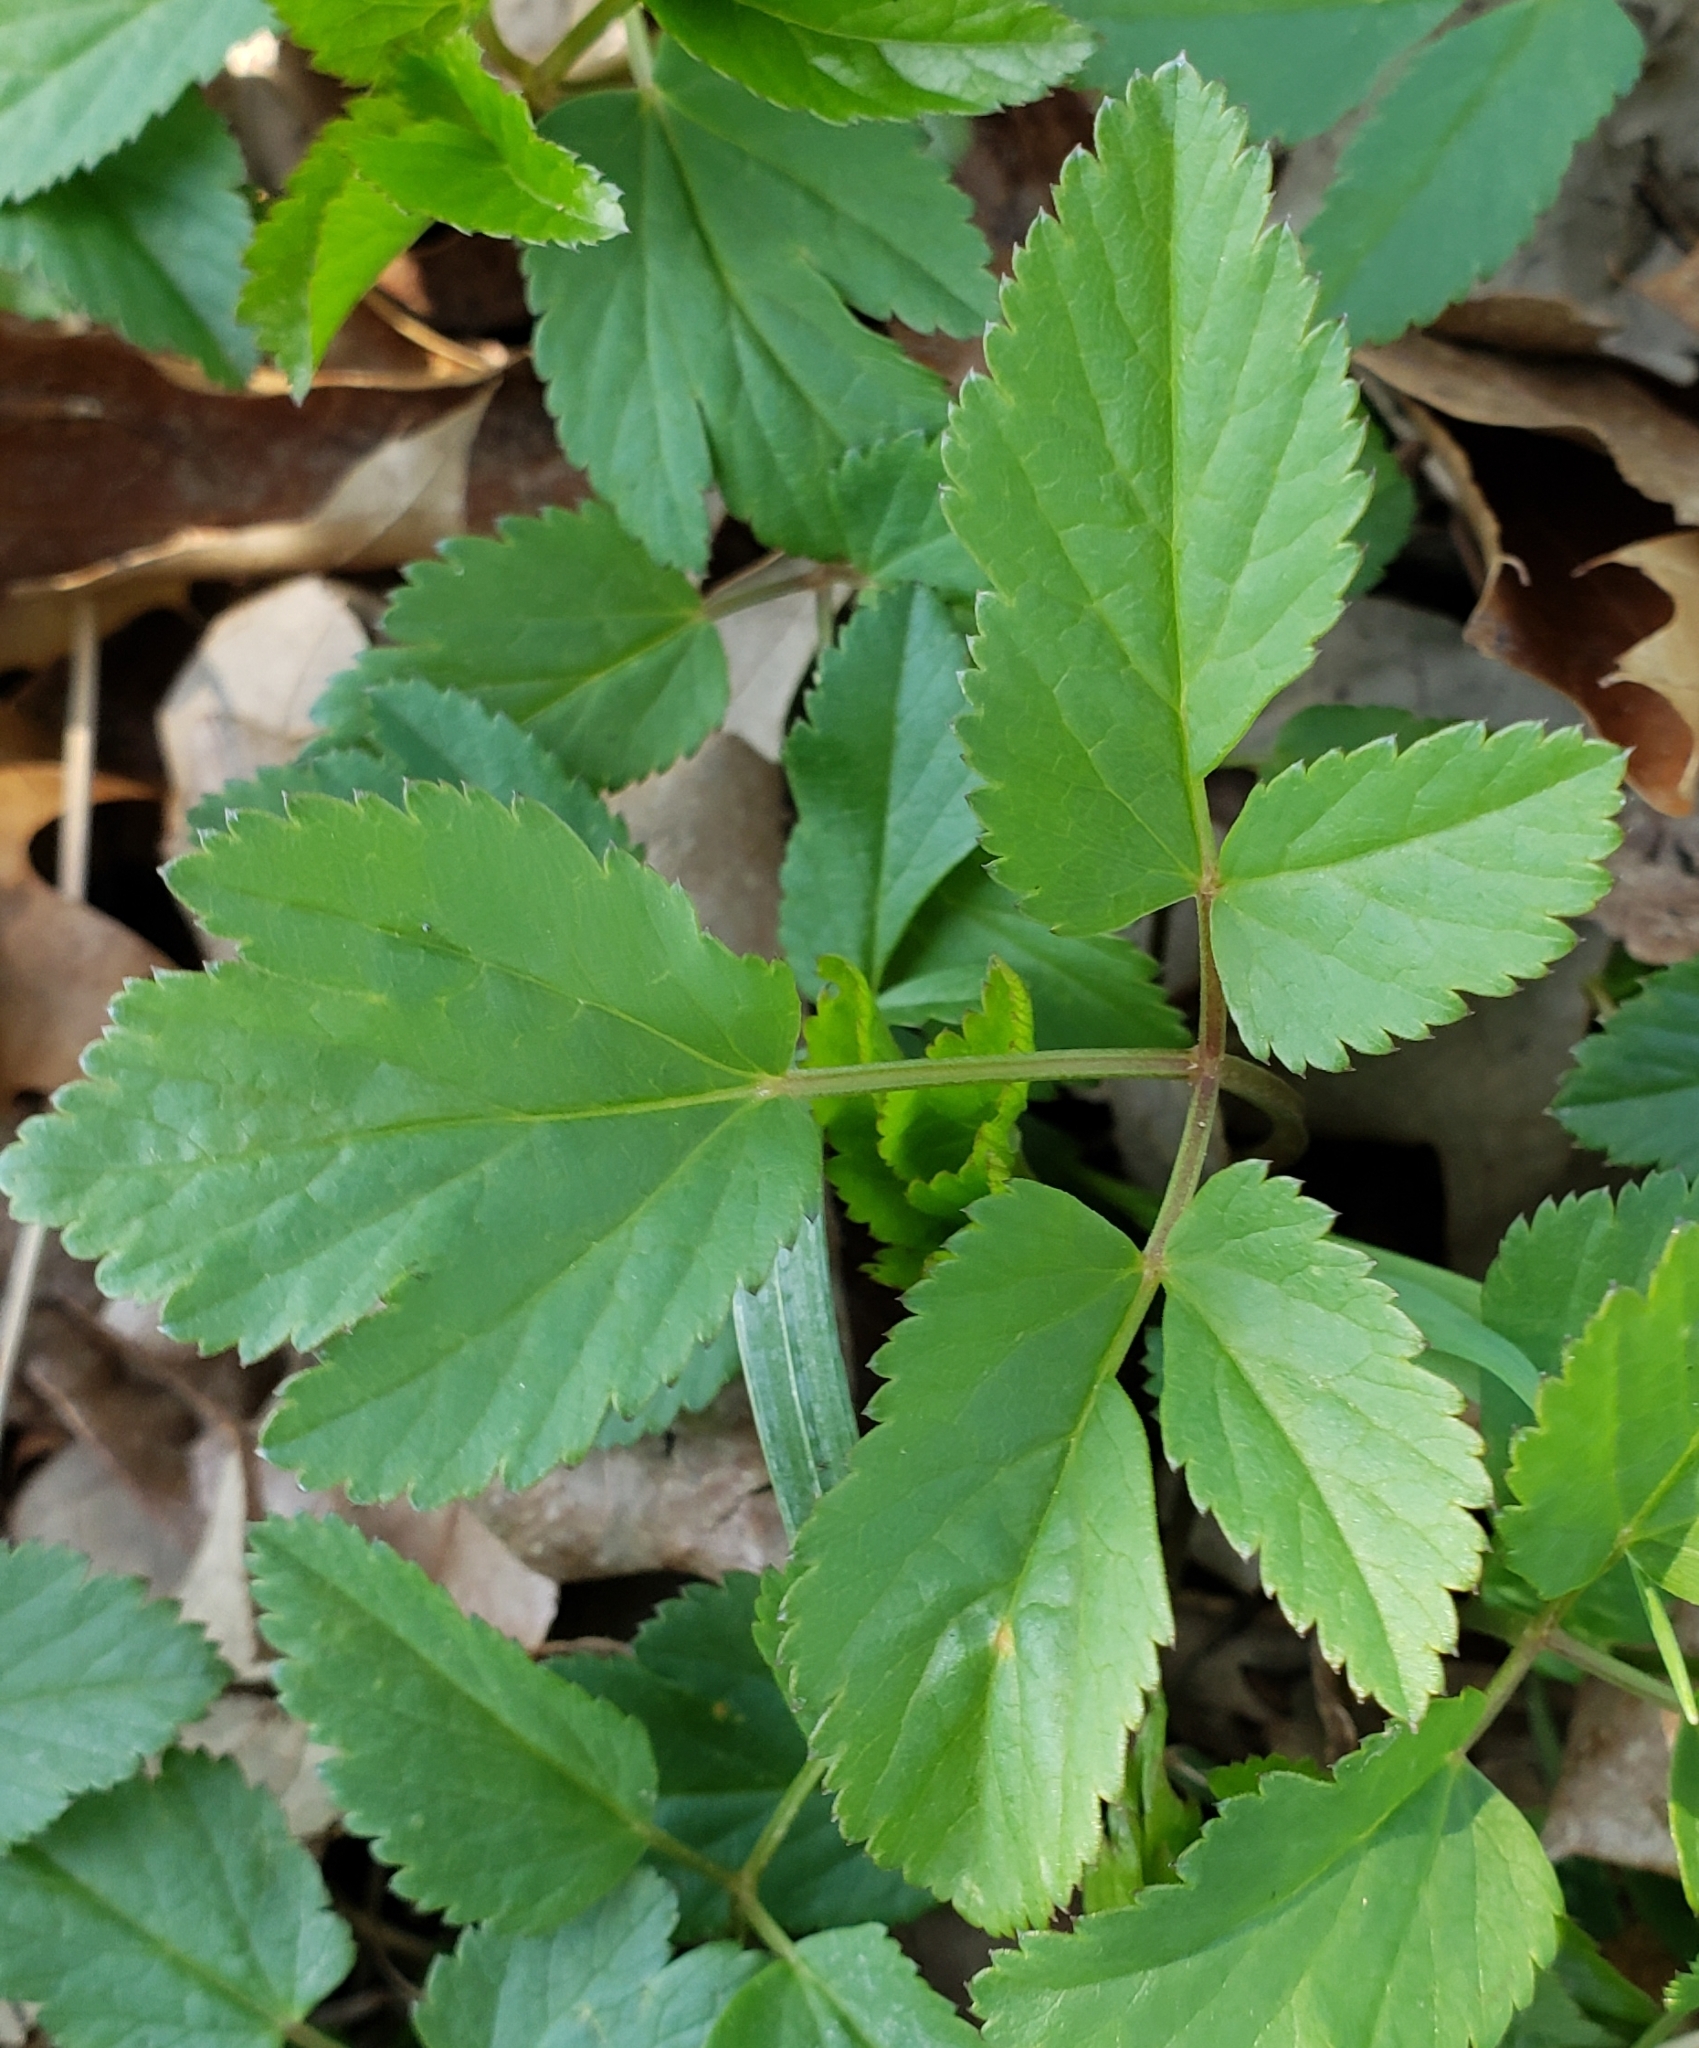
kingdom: Plantae
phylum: Tracheophyta
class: Magnoliopsida
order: Apiales
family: Apiaceae
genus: Aegopodium
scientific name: Aegopodium podagraria
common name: Ground-elder
